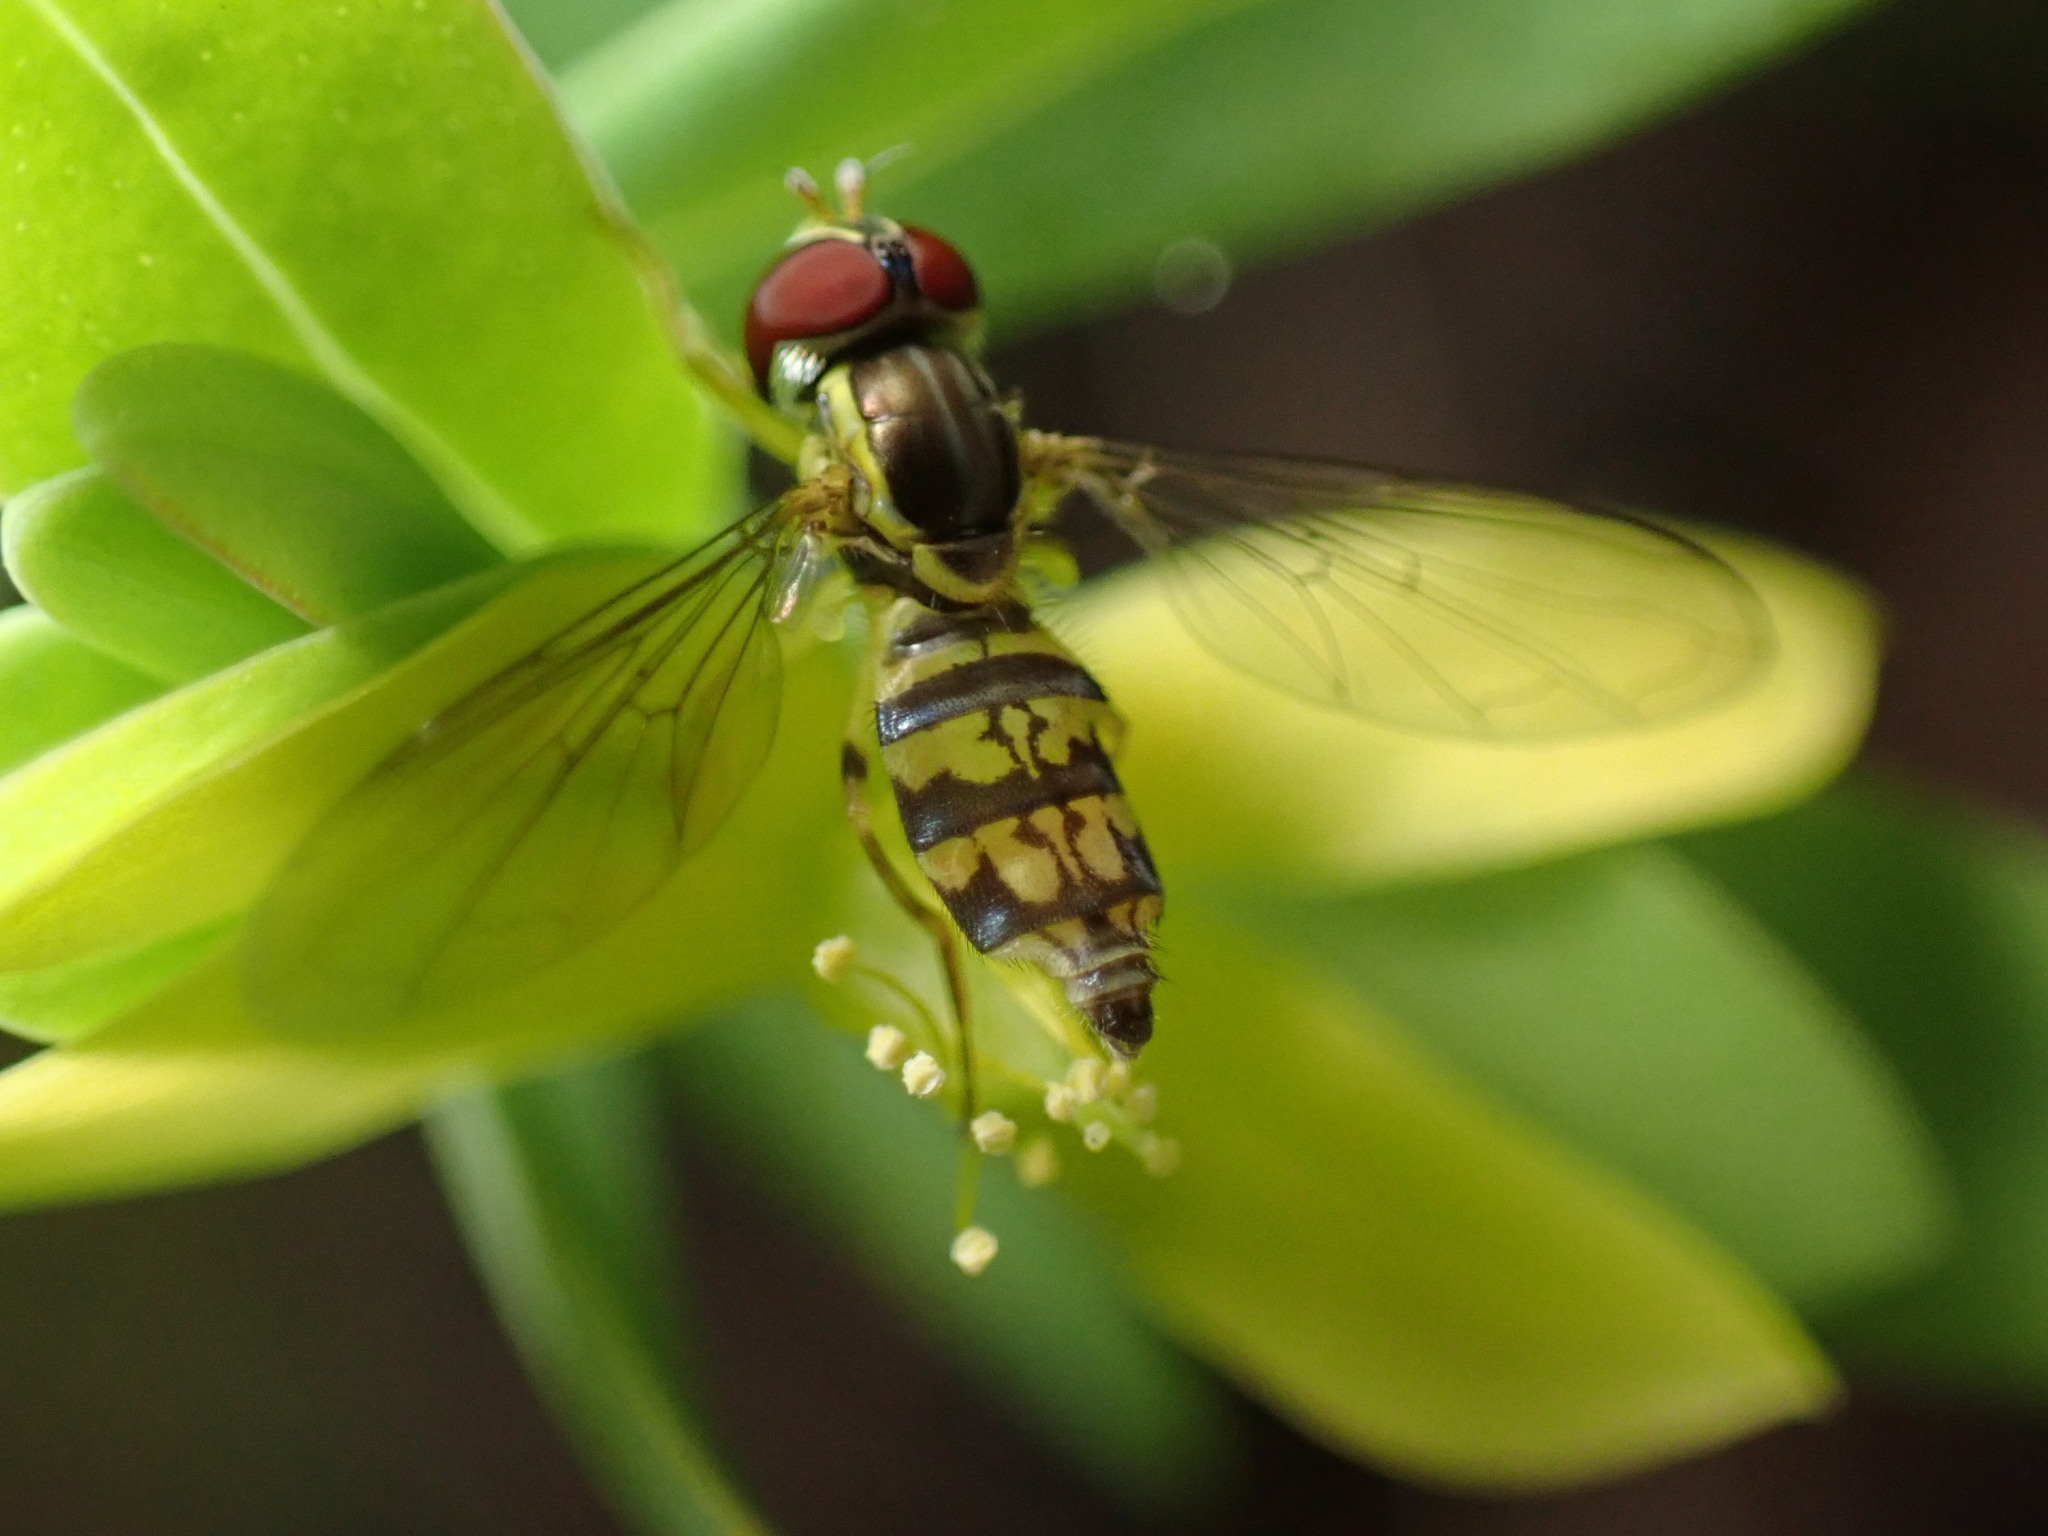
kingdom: Animalia
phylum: Arthropoda
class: Insecta
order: Diptera
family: Syrphidae
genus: Toxomerus
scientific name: Toxomerus geminatus
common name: Eastern calligrapher
